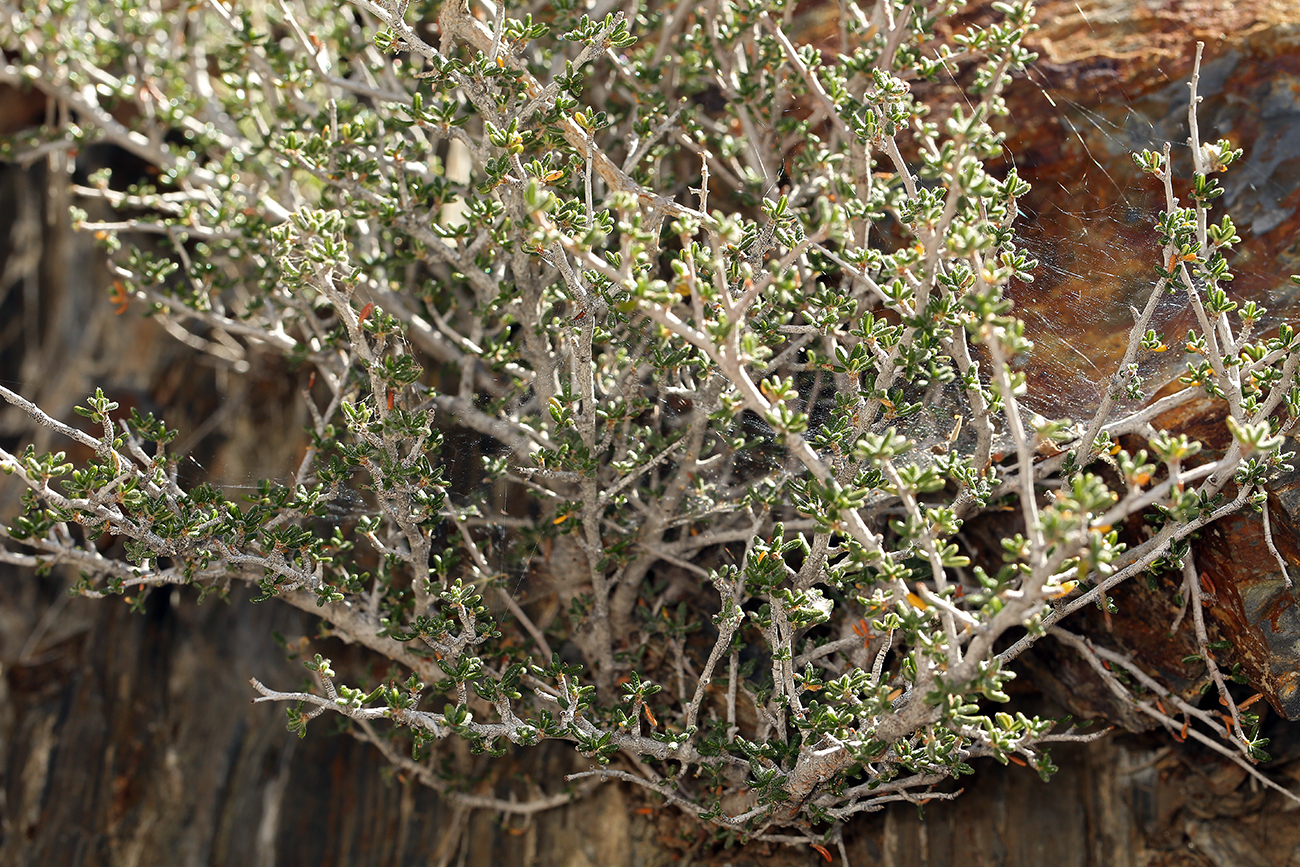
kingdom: Plantae
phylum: Tracheophyta
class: Magnoliopsida
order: Rosales
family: Rosaceae
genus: Cercocarpus
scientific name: Cercocarpus intricatus
